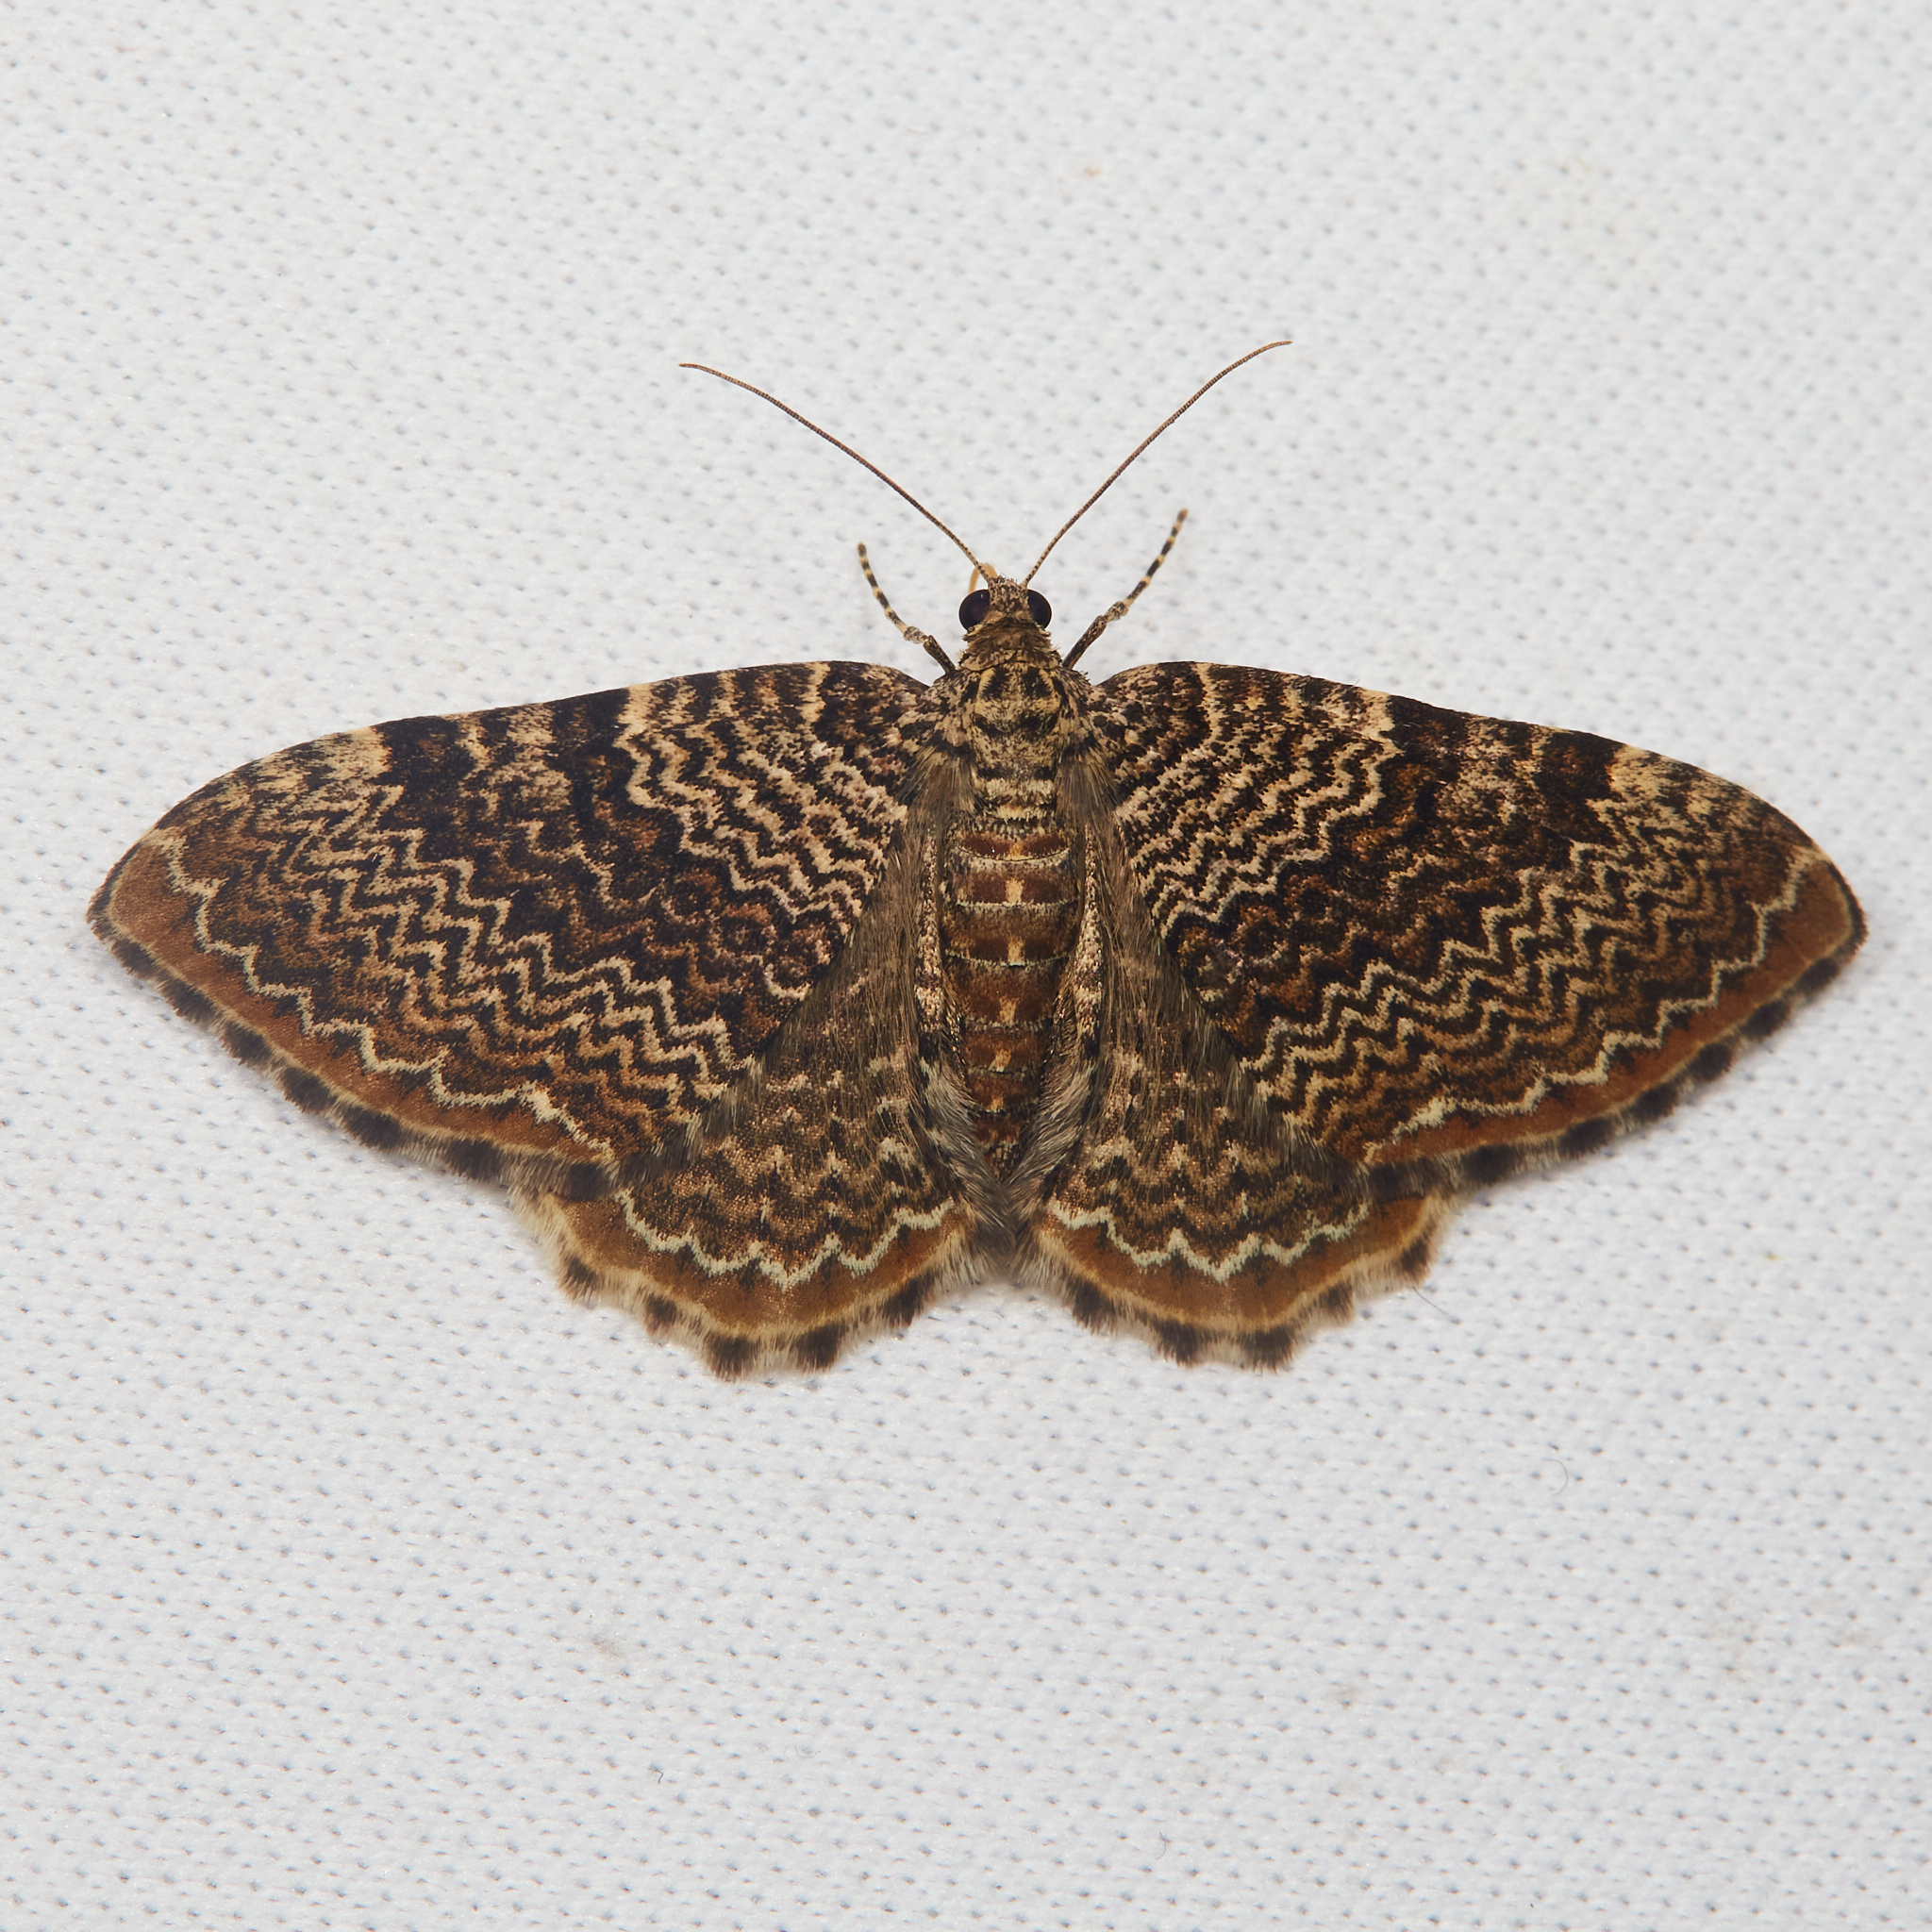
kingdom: Animalia
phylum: Arthropoda
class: Insecta
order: Lepidoptera
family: Geometridae
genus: Rheumaptera
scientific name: Rheumaptera prunivorata
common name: Cherry scallop shell moth
